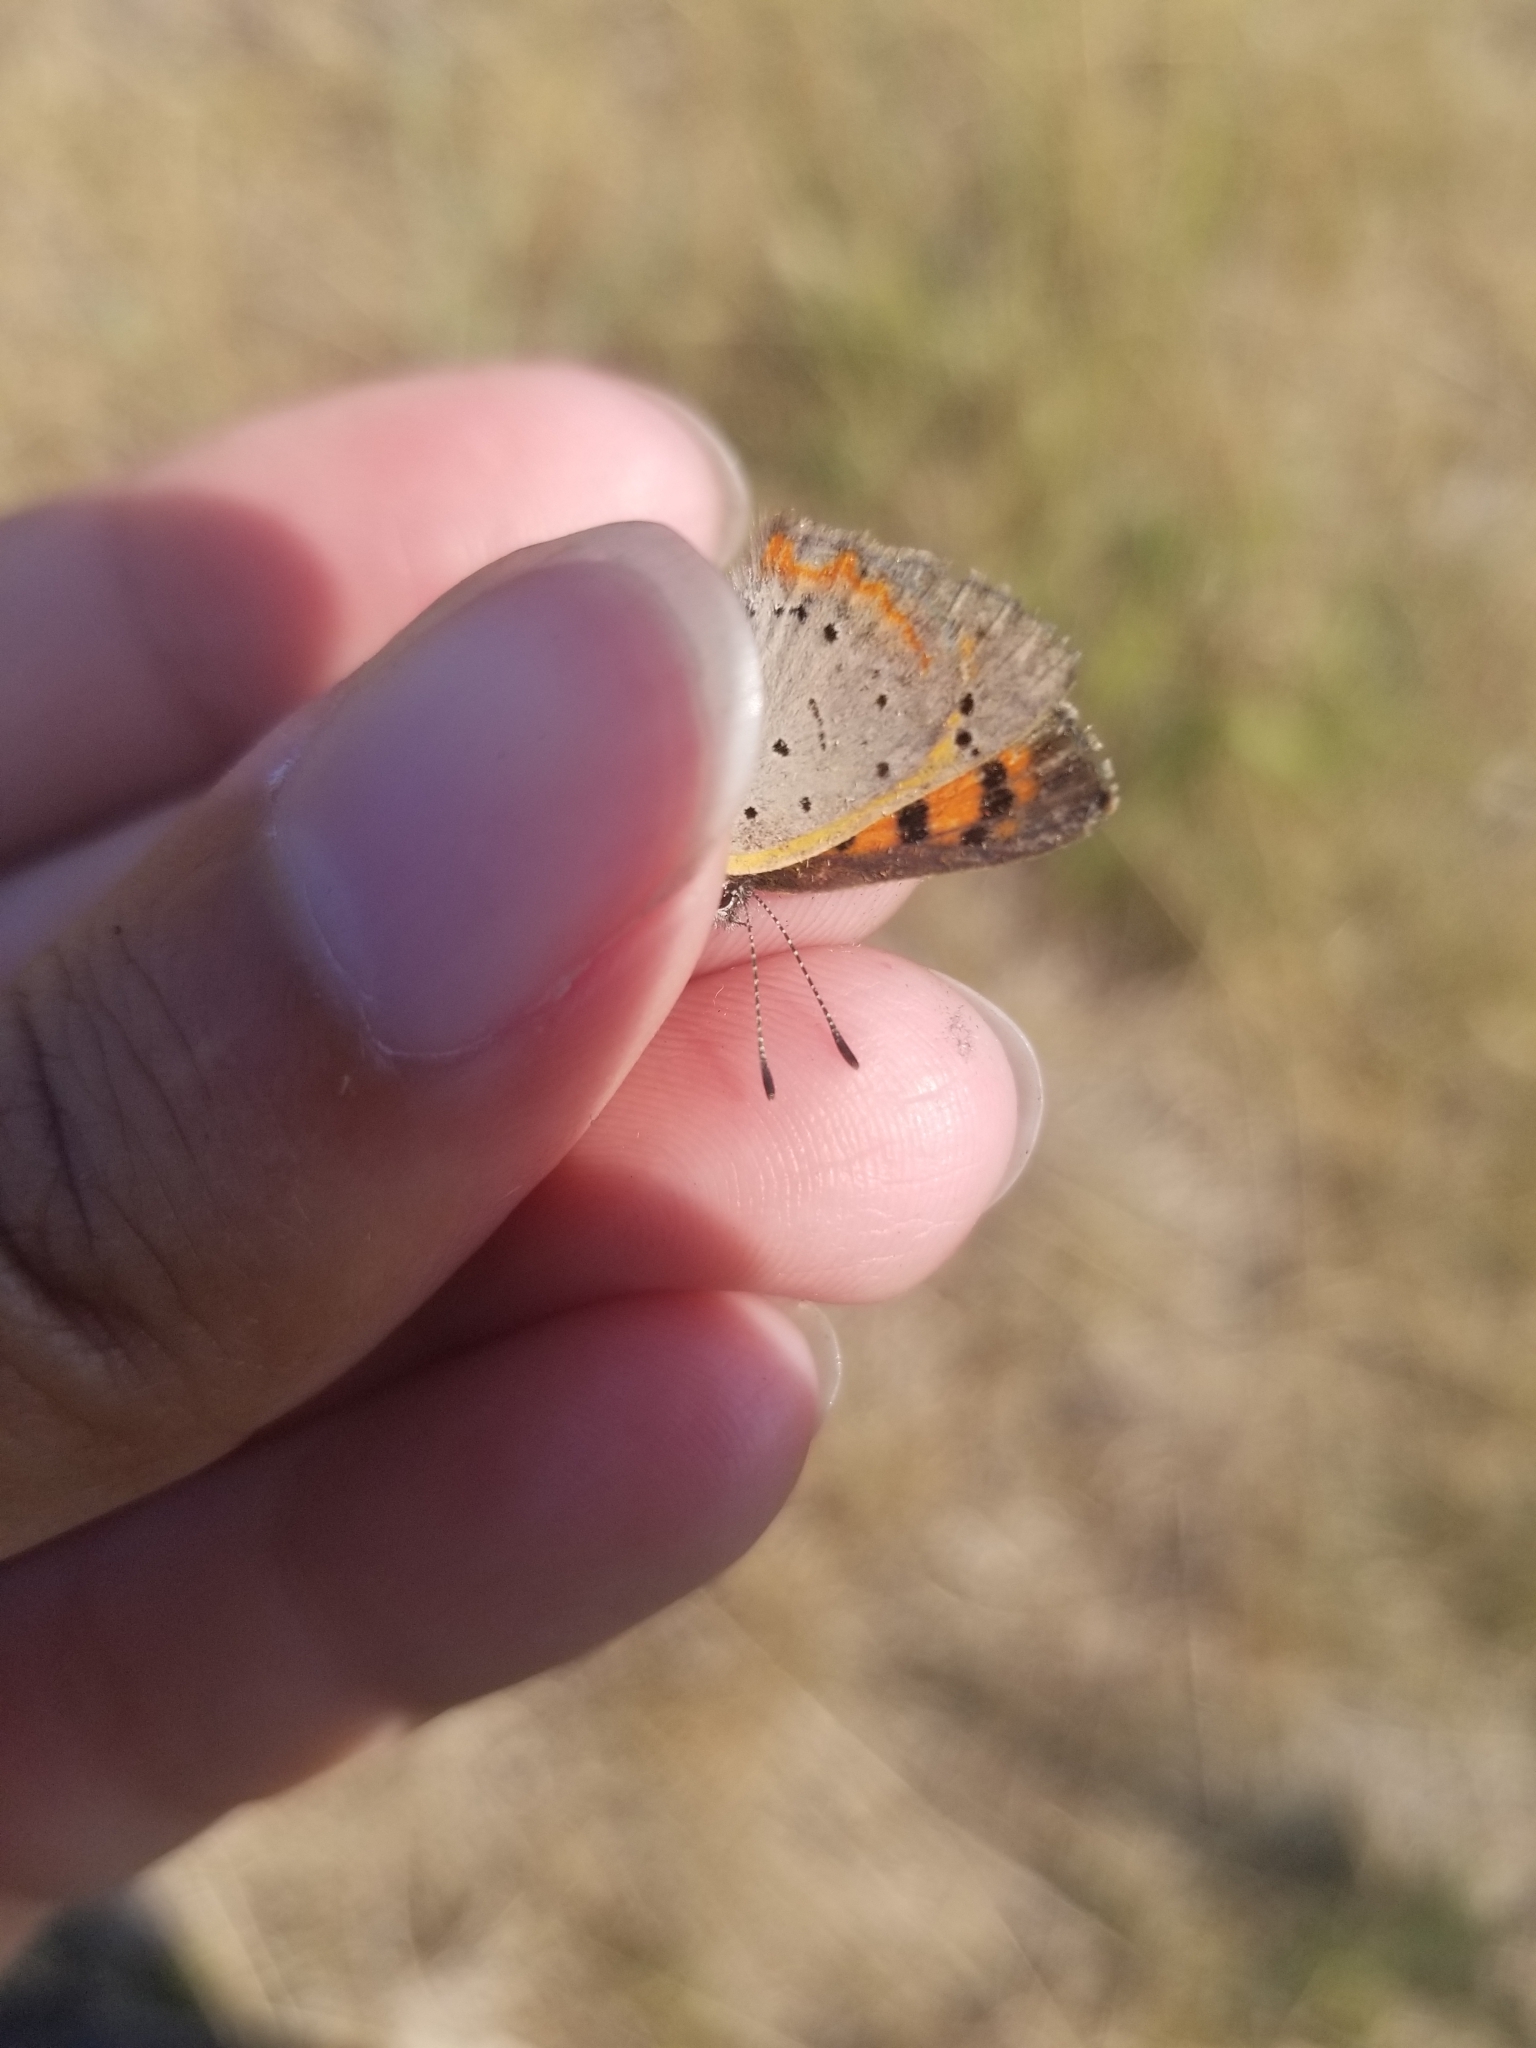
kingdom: Animalia
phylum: Arthropoda
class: Insecta
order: Lepidoptera
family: Lycaenidae
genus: Lycaena
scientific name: Lycaena hypophlaeas
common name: American copper
